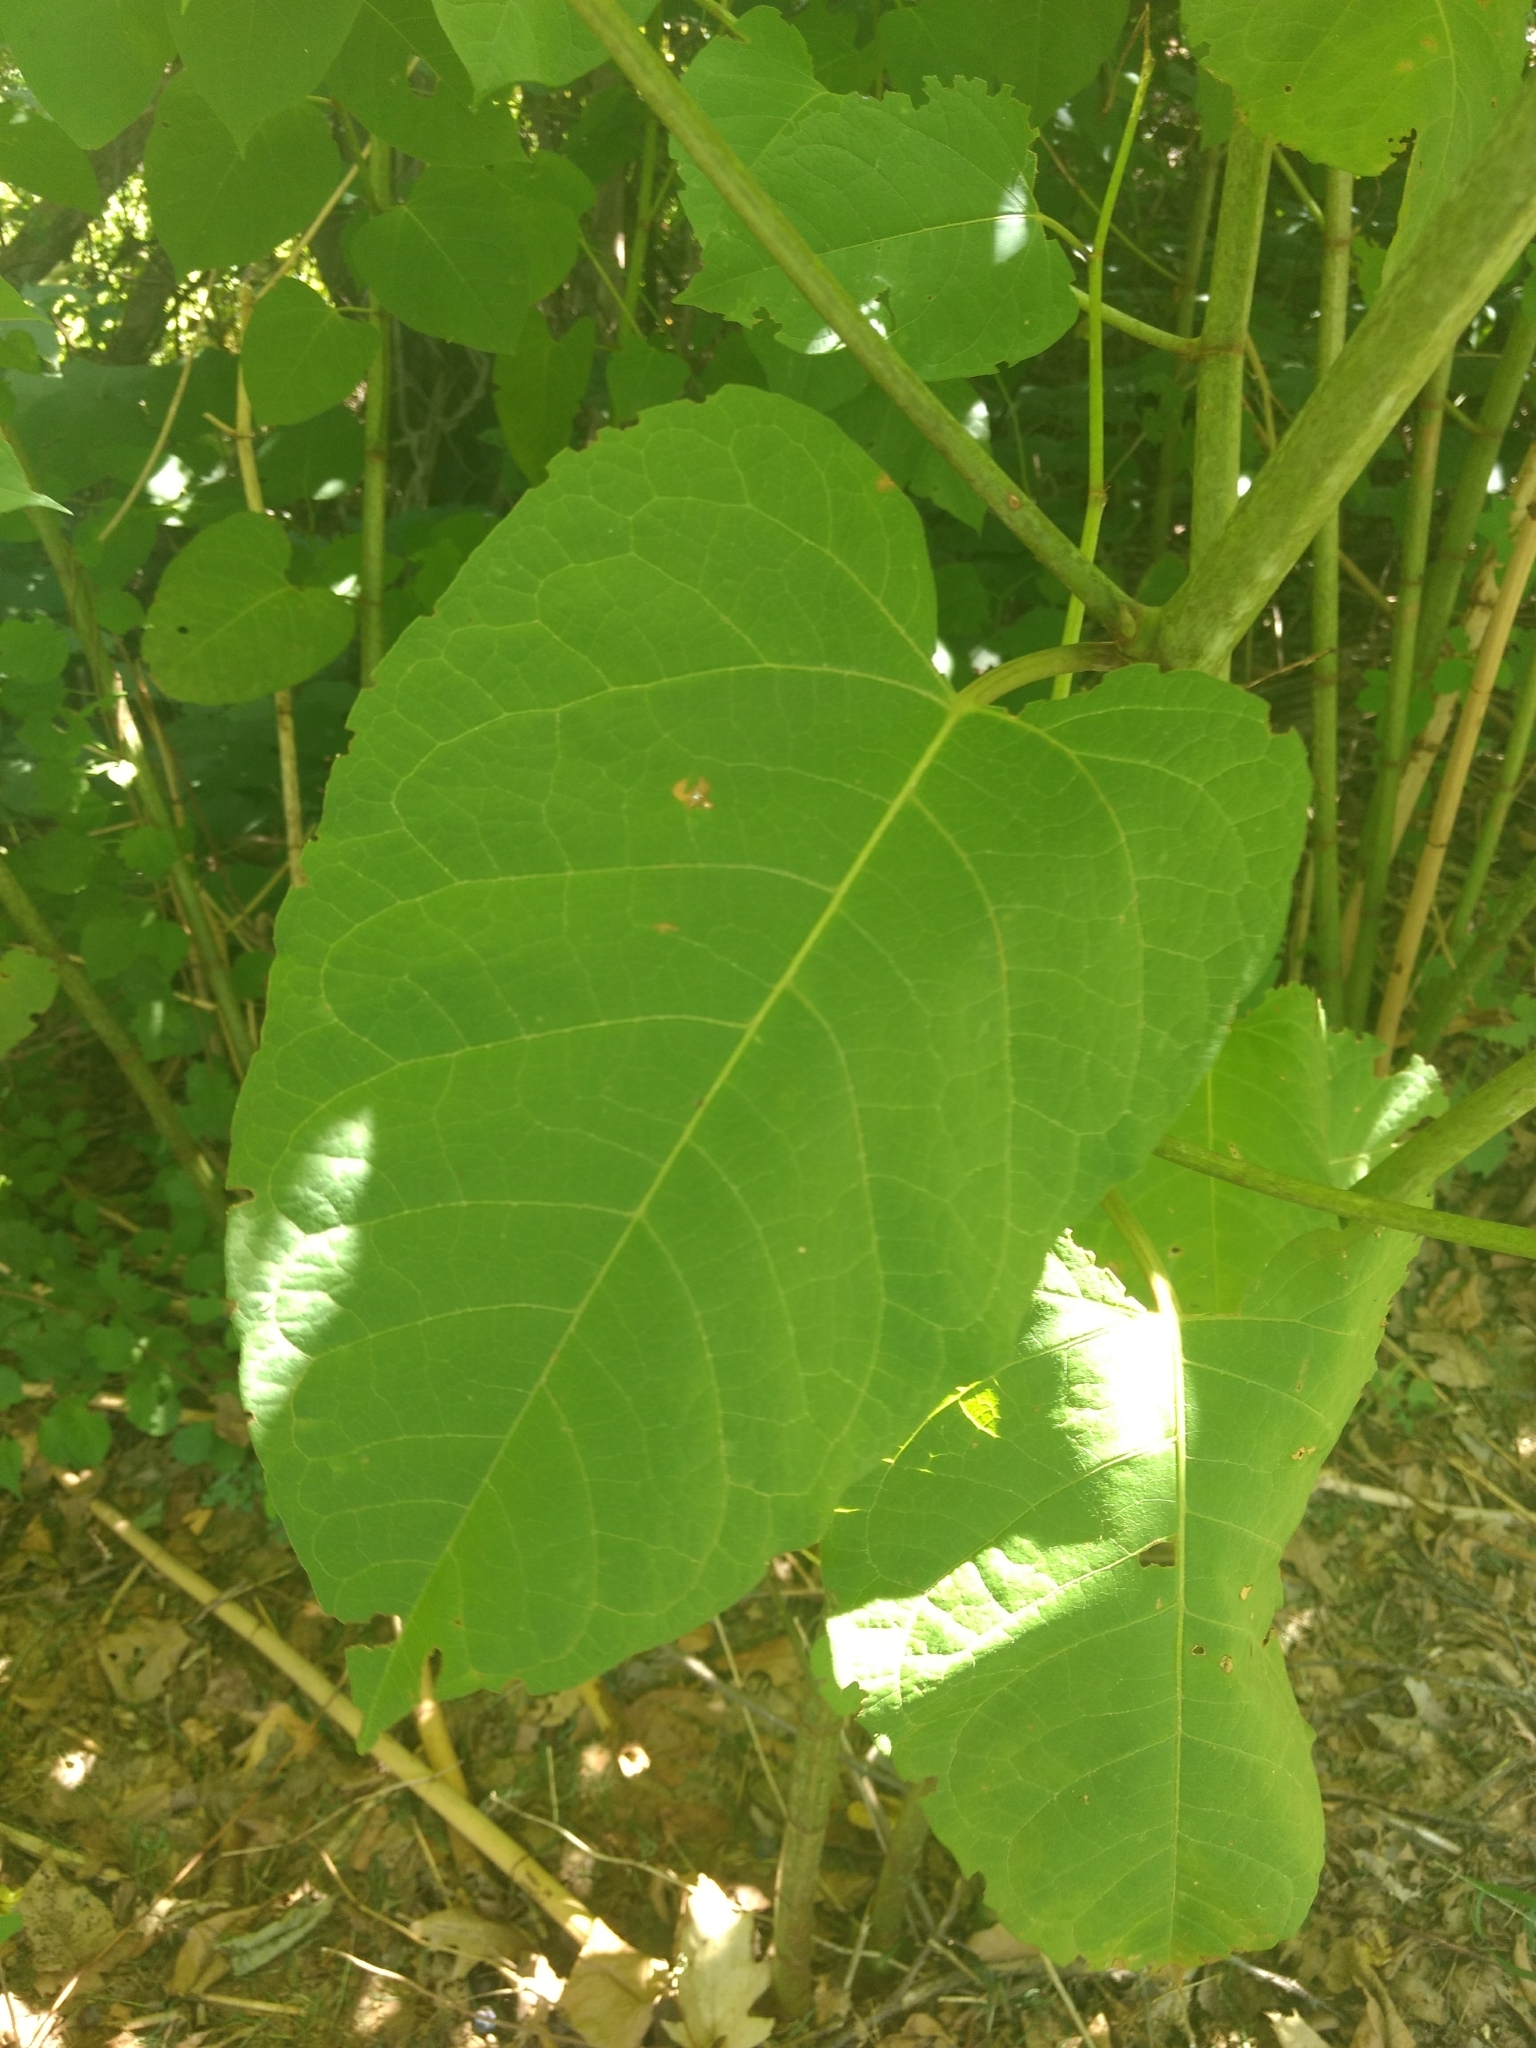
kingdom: Plantae
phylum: Tracheophyta
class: Magnoliopsida
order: Caryophyllales
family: Polygonaceae
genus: Reynoutria
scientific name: Reynoutria sachalinensis
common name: Giant knotweed
